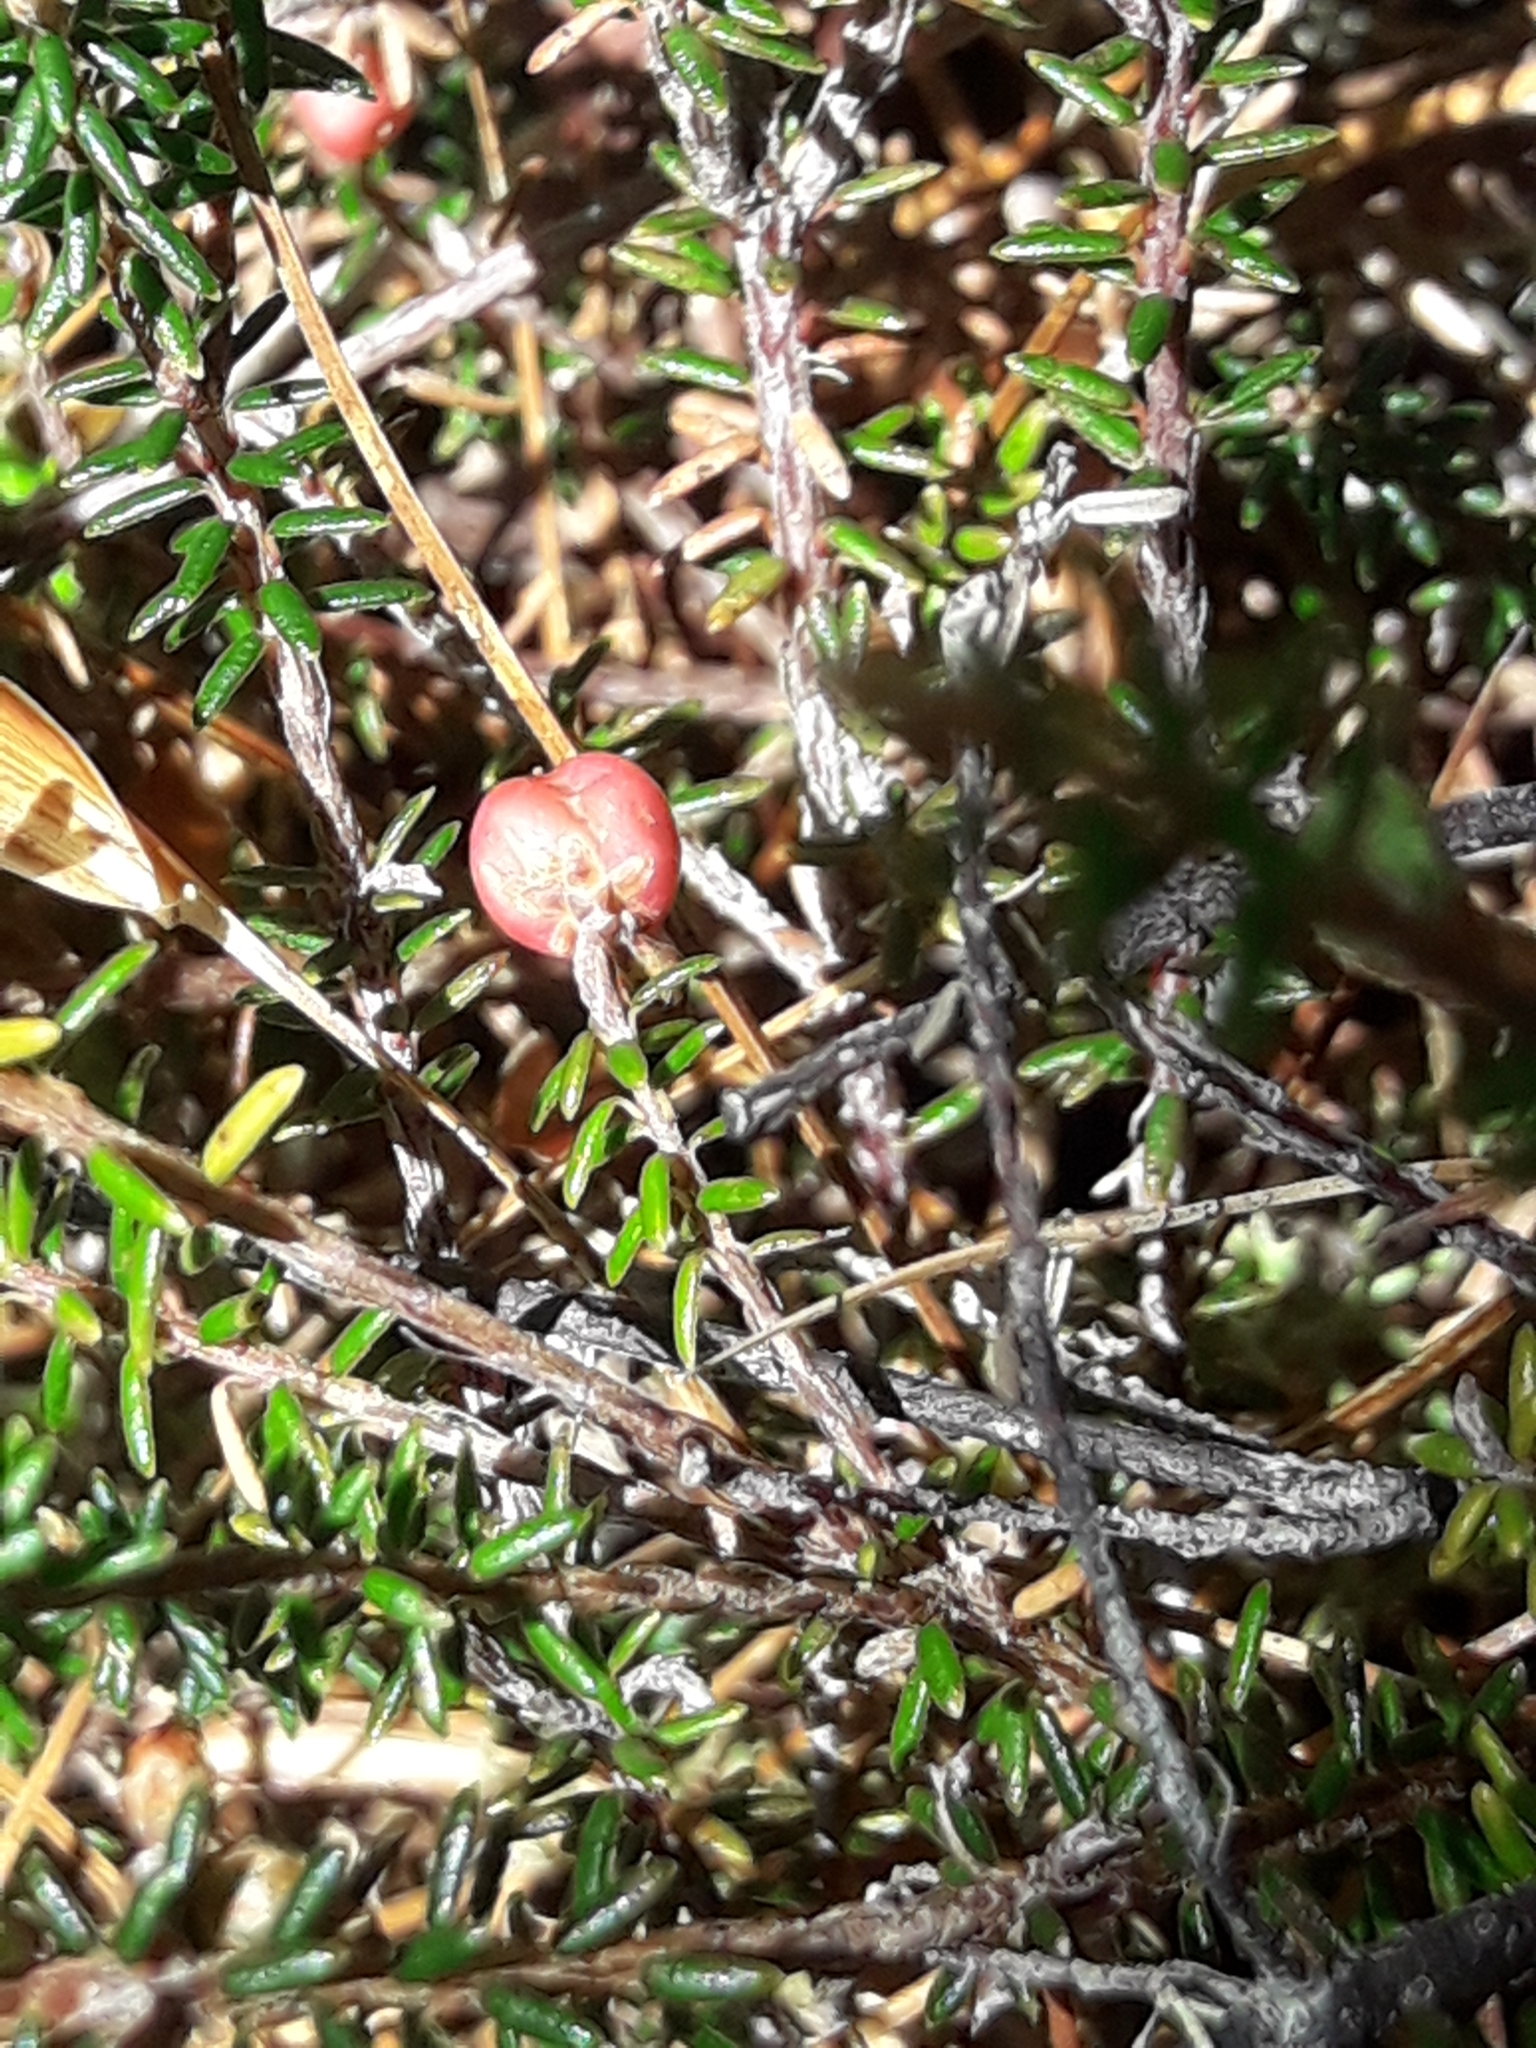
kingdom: Plantae
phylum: Tracheophyta
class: Magnoliopsida
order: Ericales
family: Ericaceae
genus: Androstoma
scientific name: Androstoma empetrifolia
